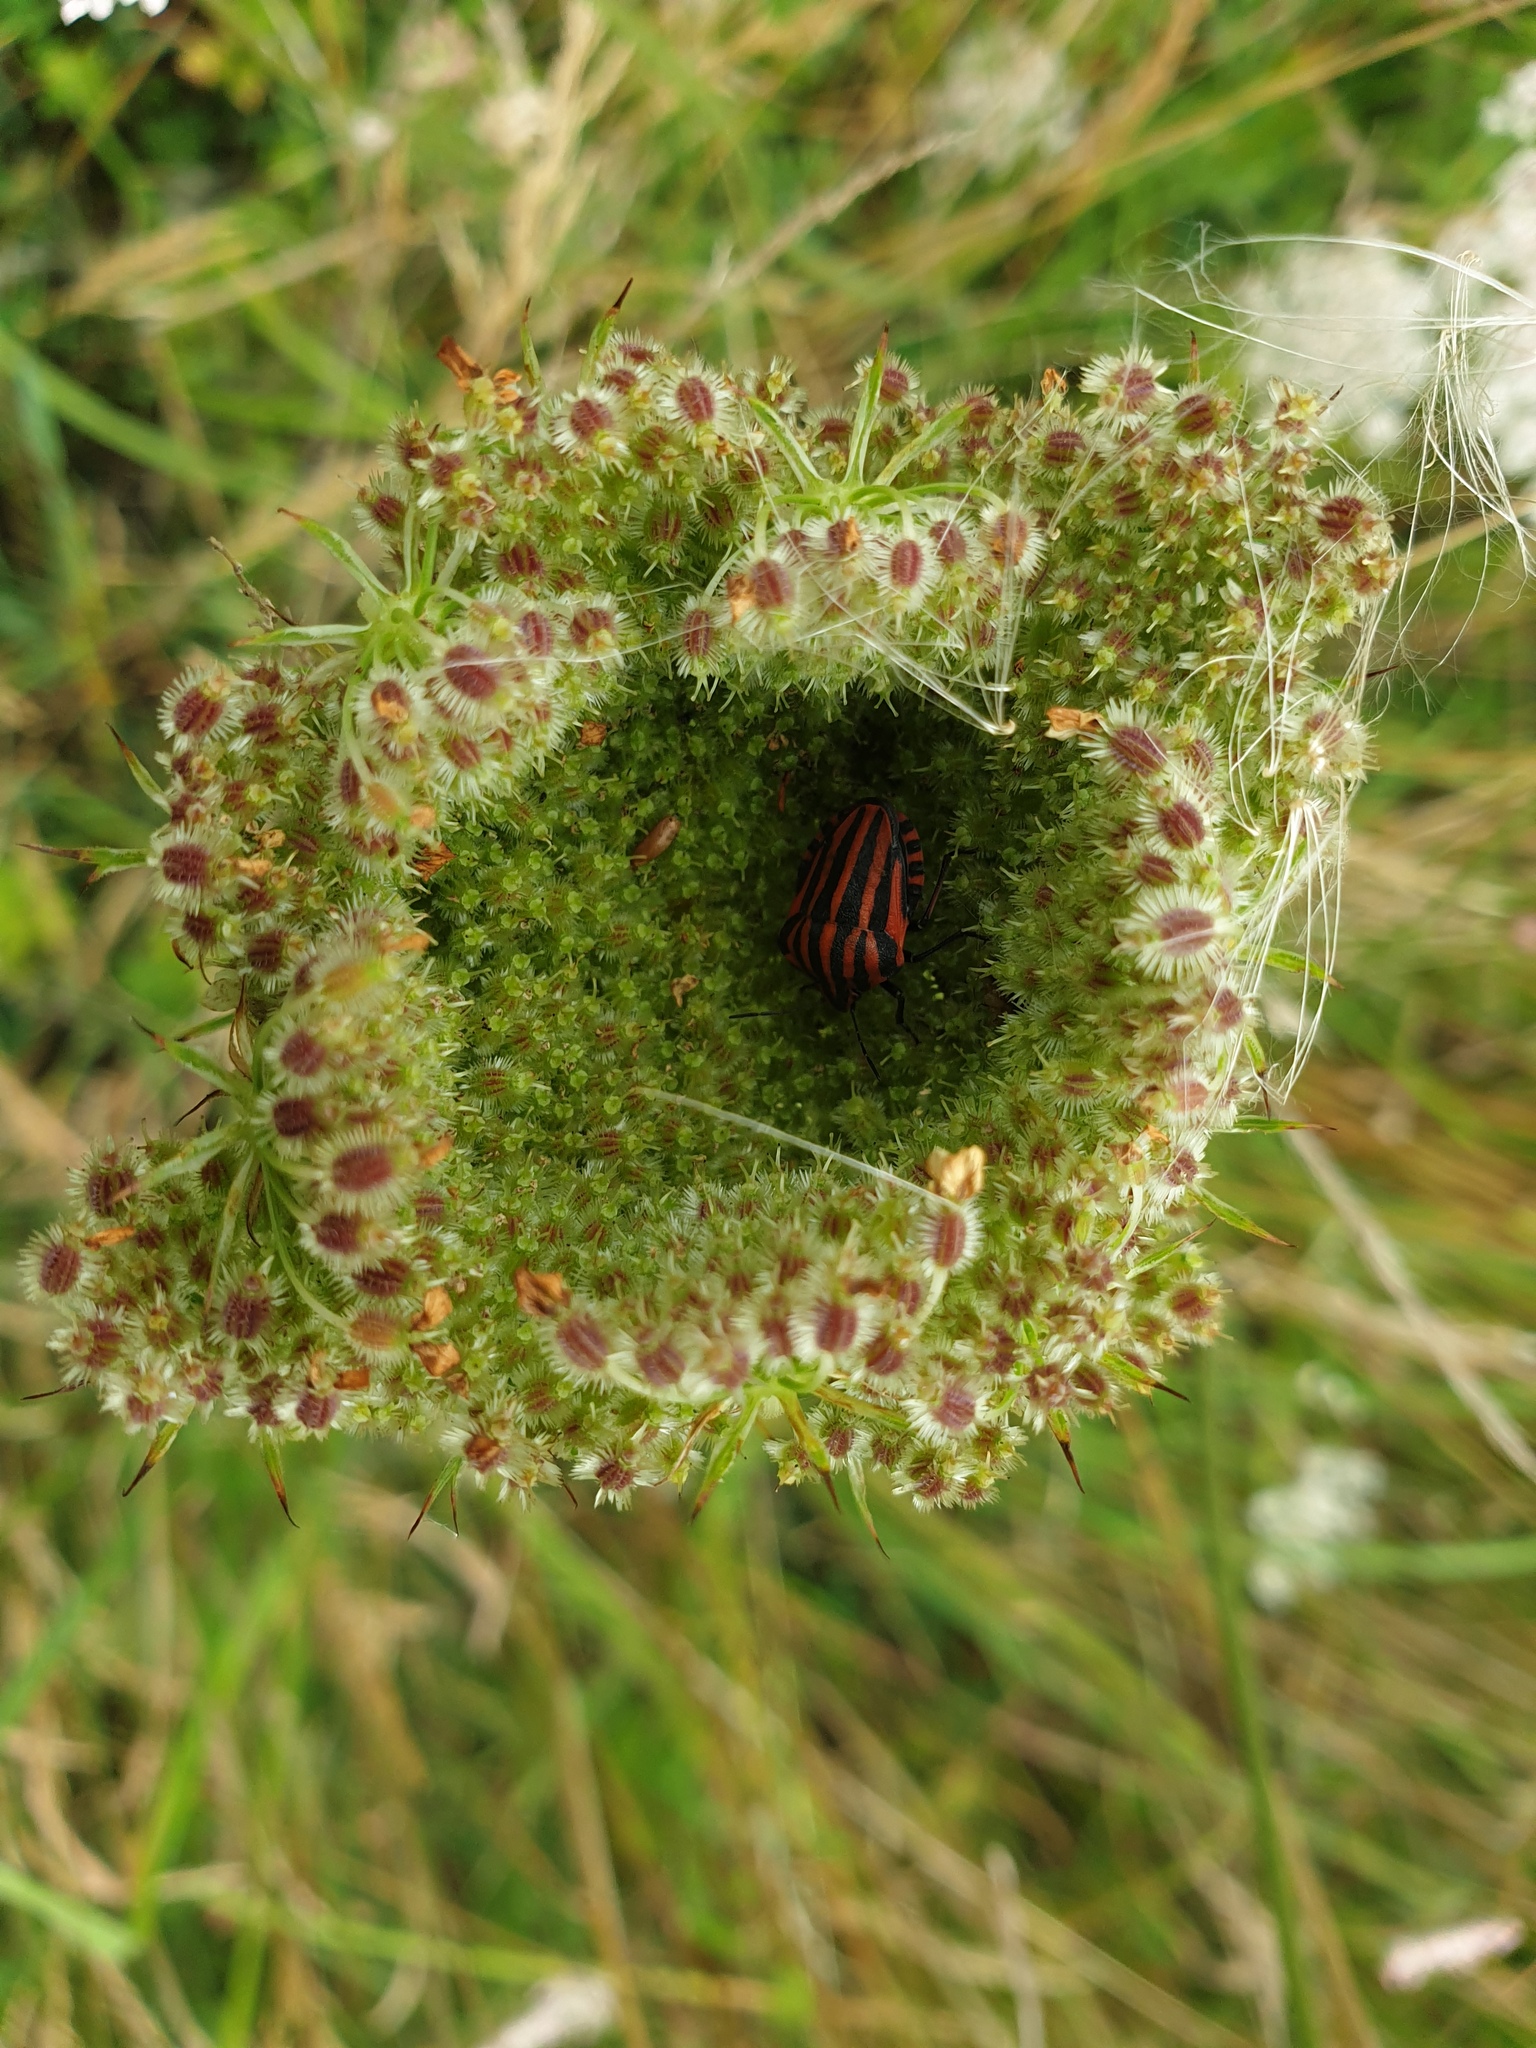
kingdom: Animalia
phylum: Arthropoda
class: Insecta
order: Hemiptera
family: Pentatomidae
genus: Graphosoma
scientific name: Graphosoma italicum
